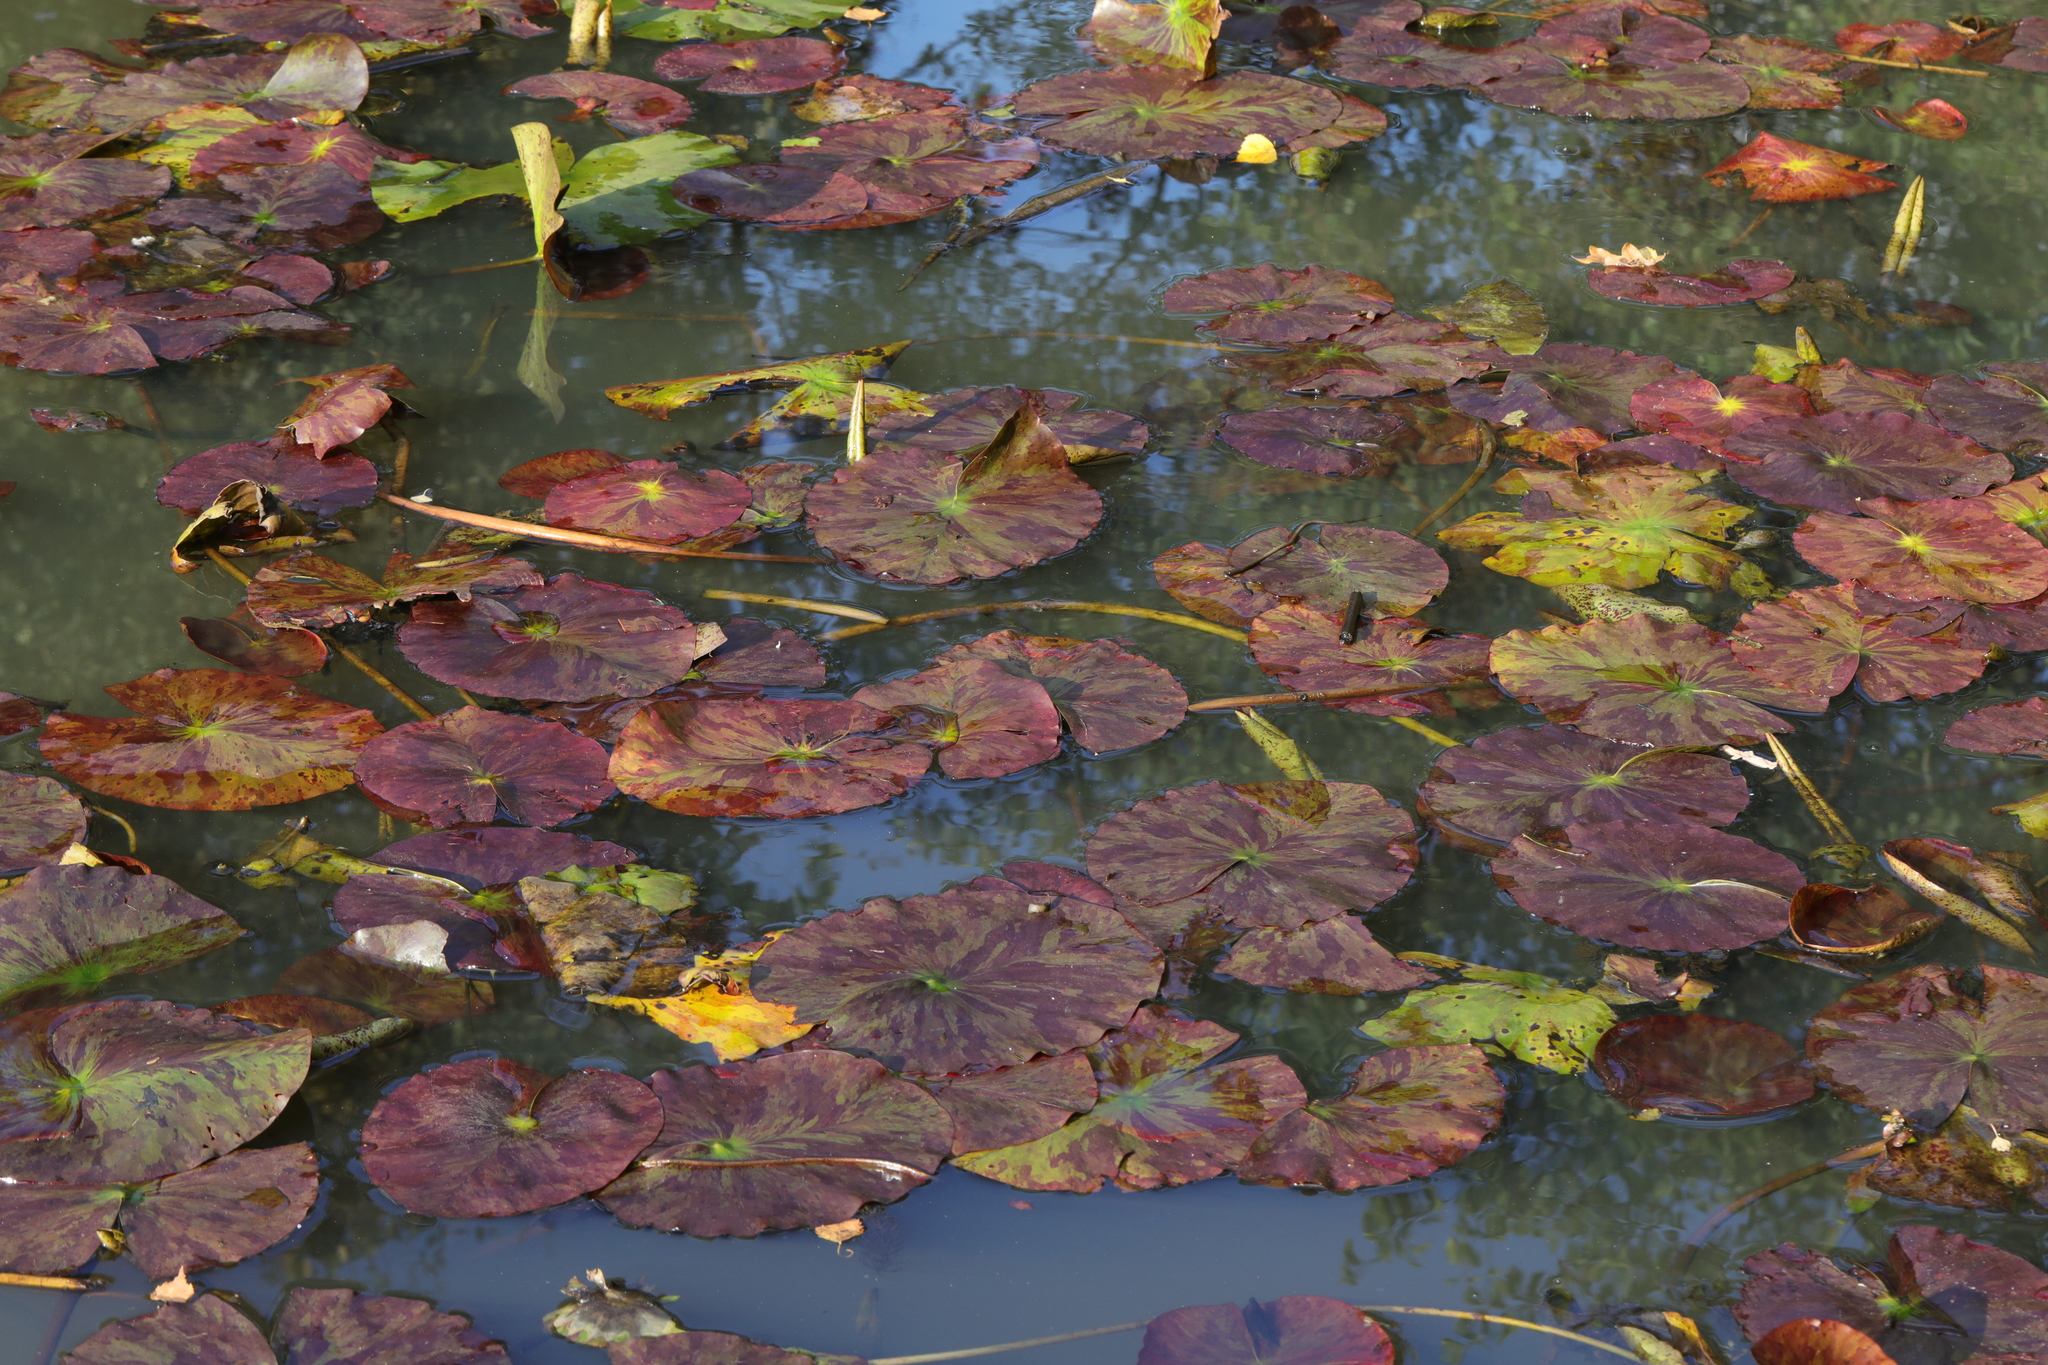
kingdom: Plantae
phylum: Tracheophyta
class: Magnoliopsida
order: Nymphaeales
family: Nymphaeaceae
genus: Nymphaea
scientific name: Nymphaea alba
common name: White water-lily
